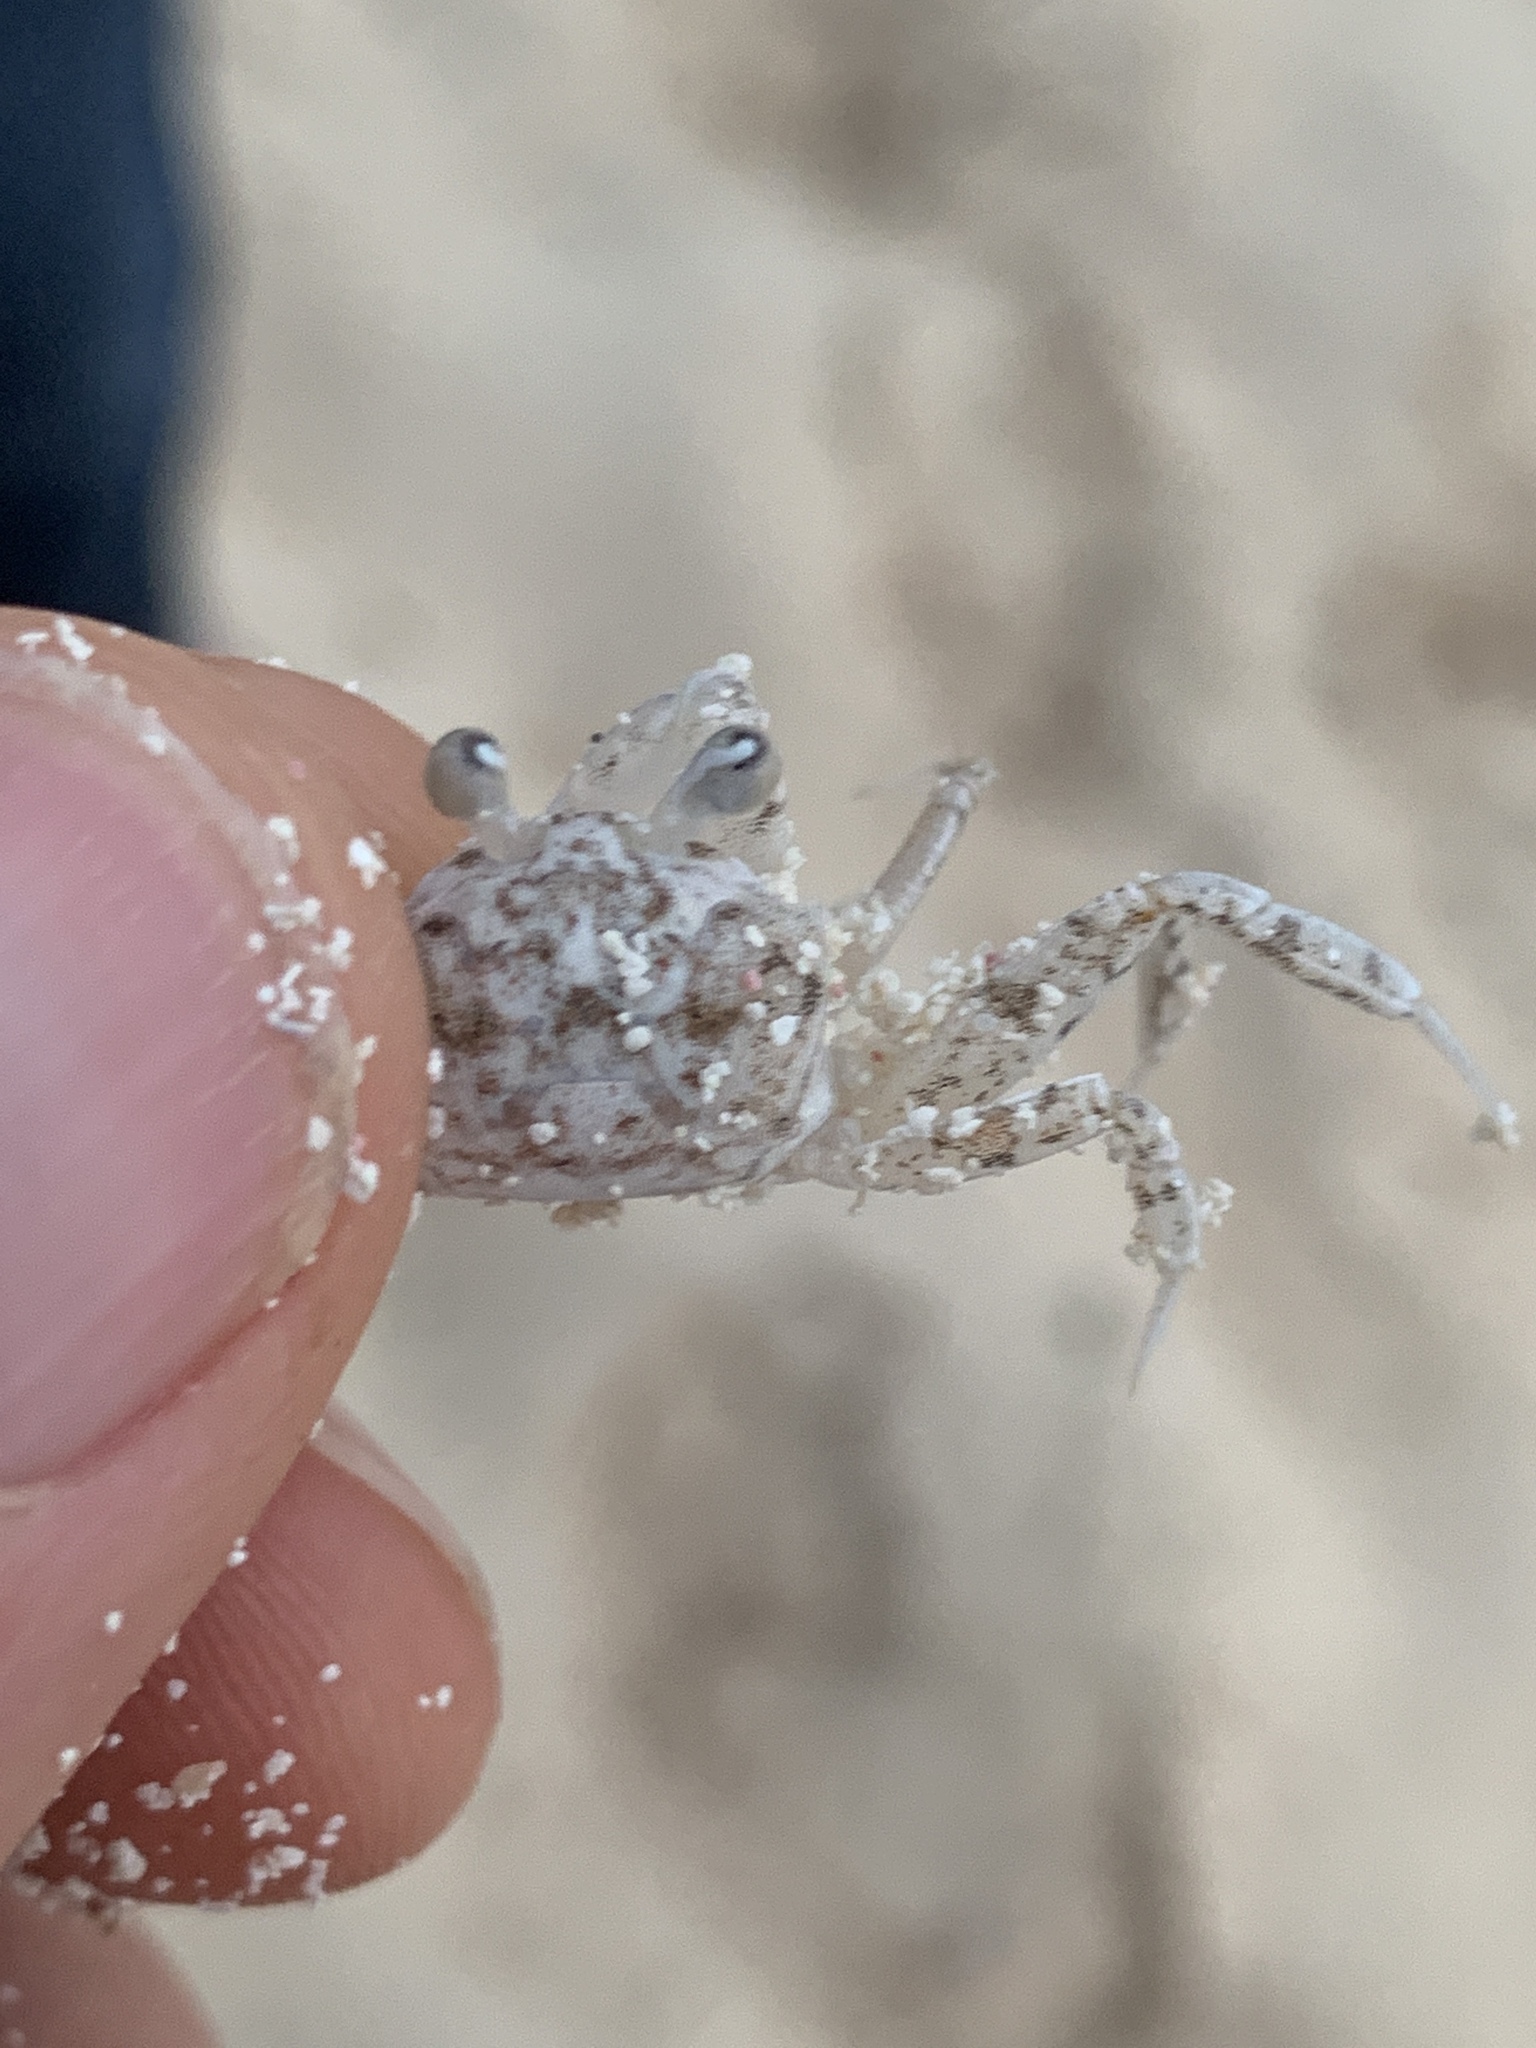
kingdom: Animalia
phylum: Arthropoda
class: Malacostraca
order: Decapoda
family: Ocypodidae
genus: Ocypode
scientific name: Ocypode quadrata
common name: Ghost crab
